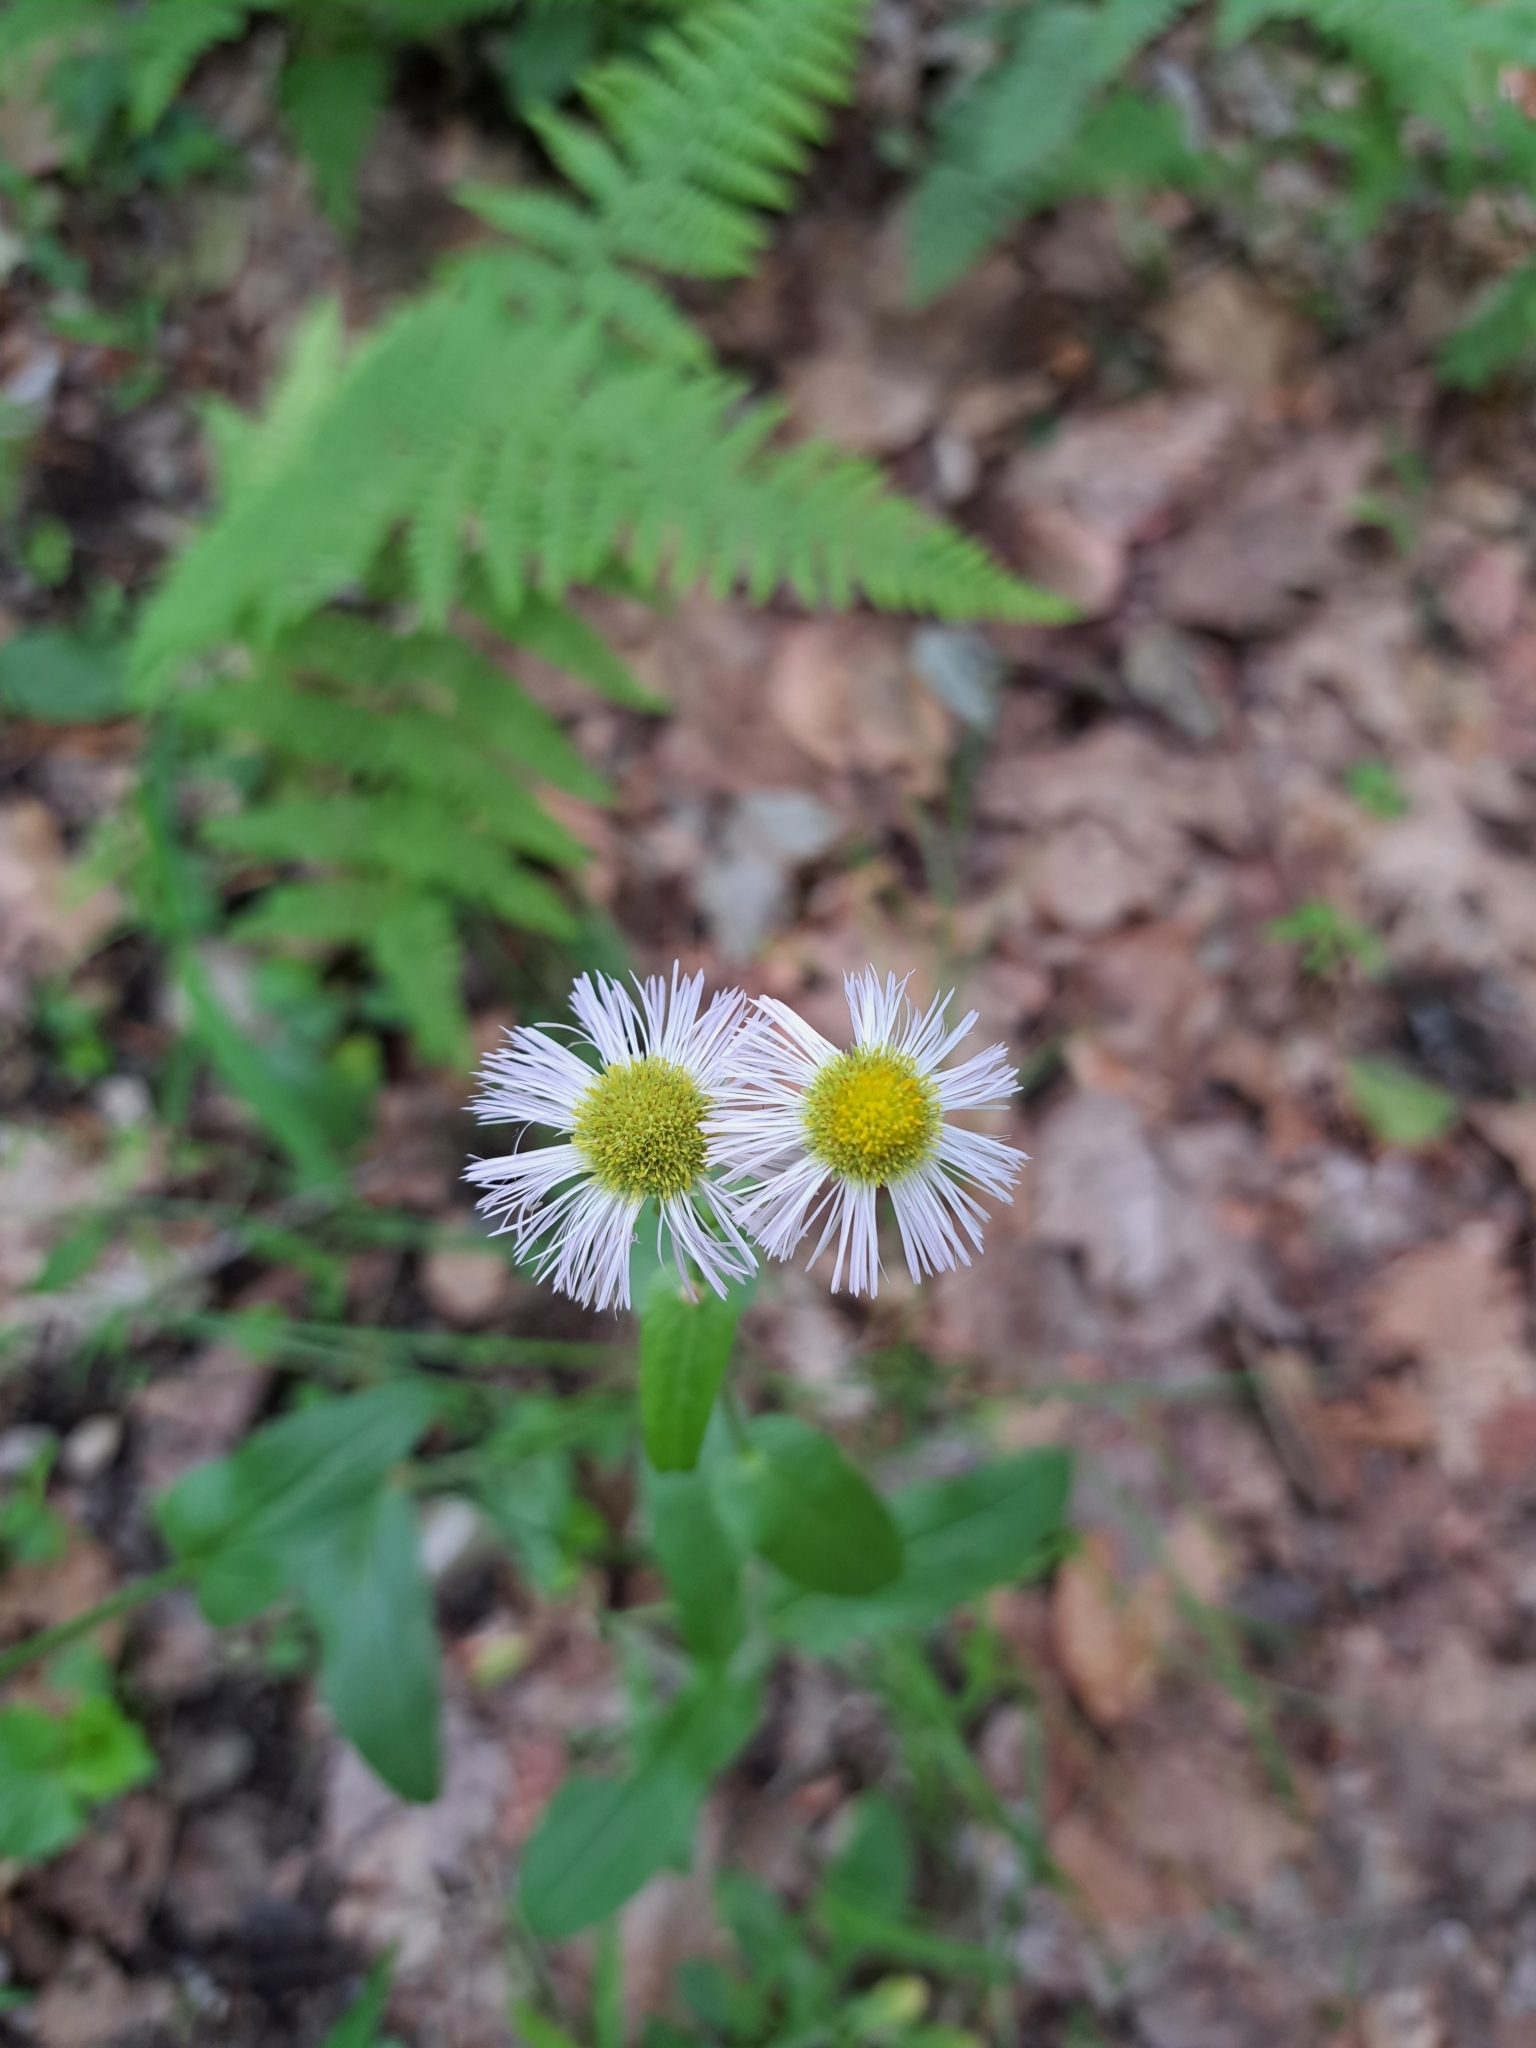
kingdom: Plantae
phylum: Tracheophyta
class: Magnoliopsida
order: Asterales
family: Asteraceae
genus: Erigeron
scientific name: Erigeron philadelphicus
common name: Robin's-plantain
